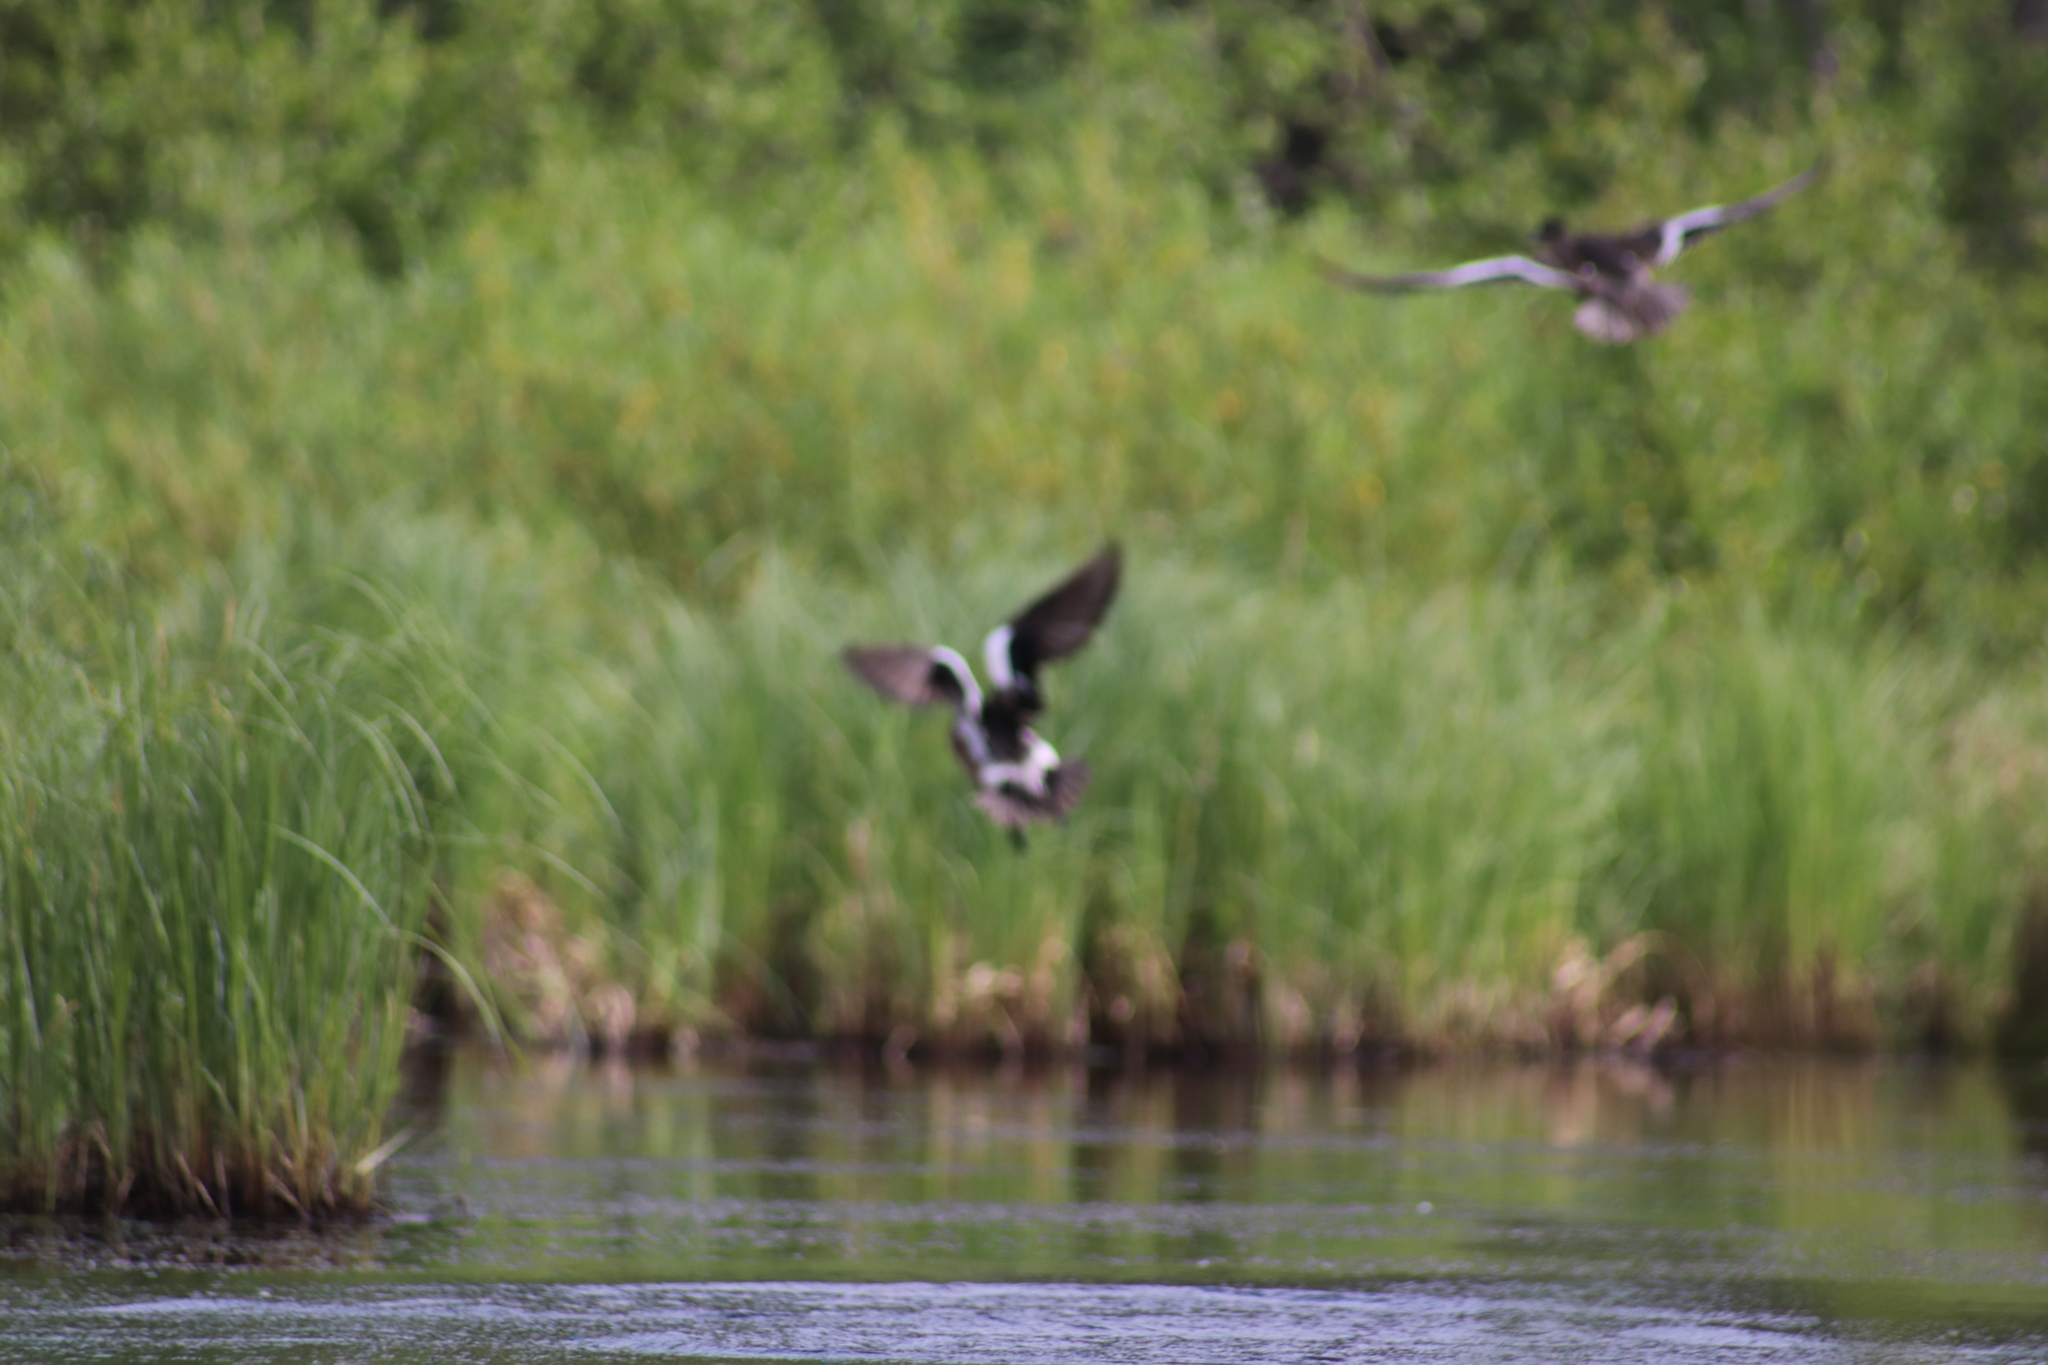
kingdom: Animalia
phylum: Chordata
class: Aves
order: Anseriformes
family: Anatidae
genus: Mareca
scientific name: Mareca americana
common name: American wigeon
